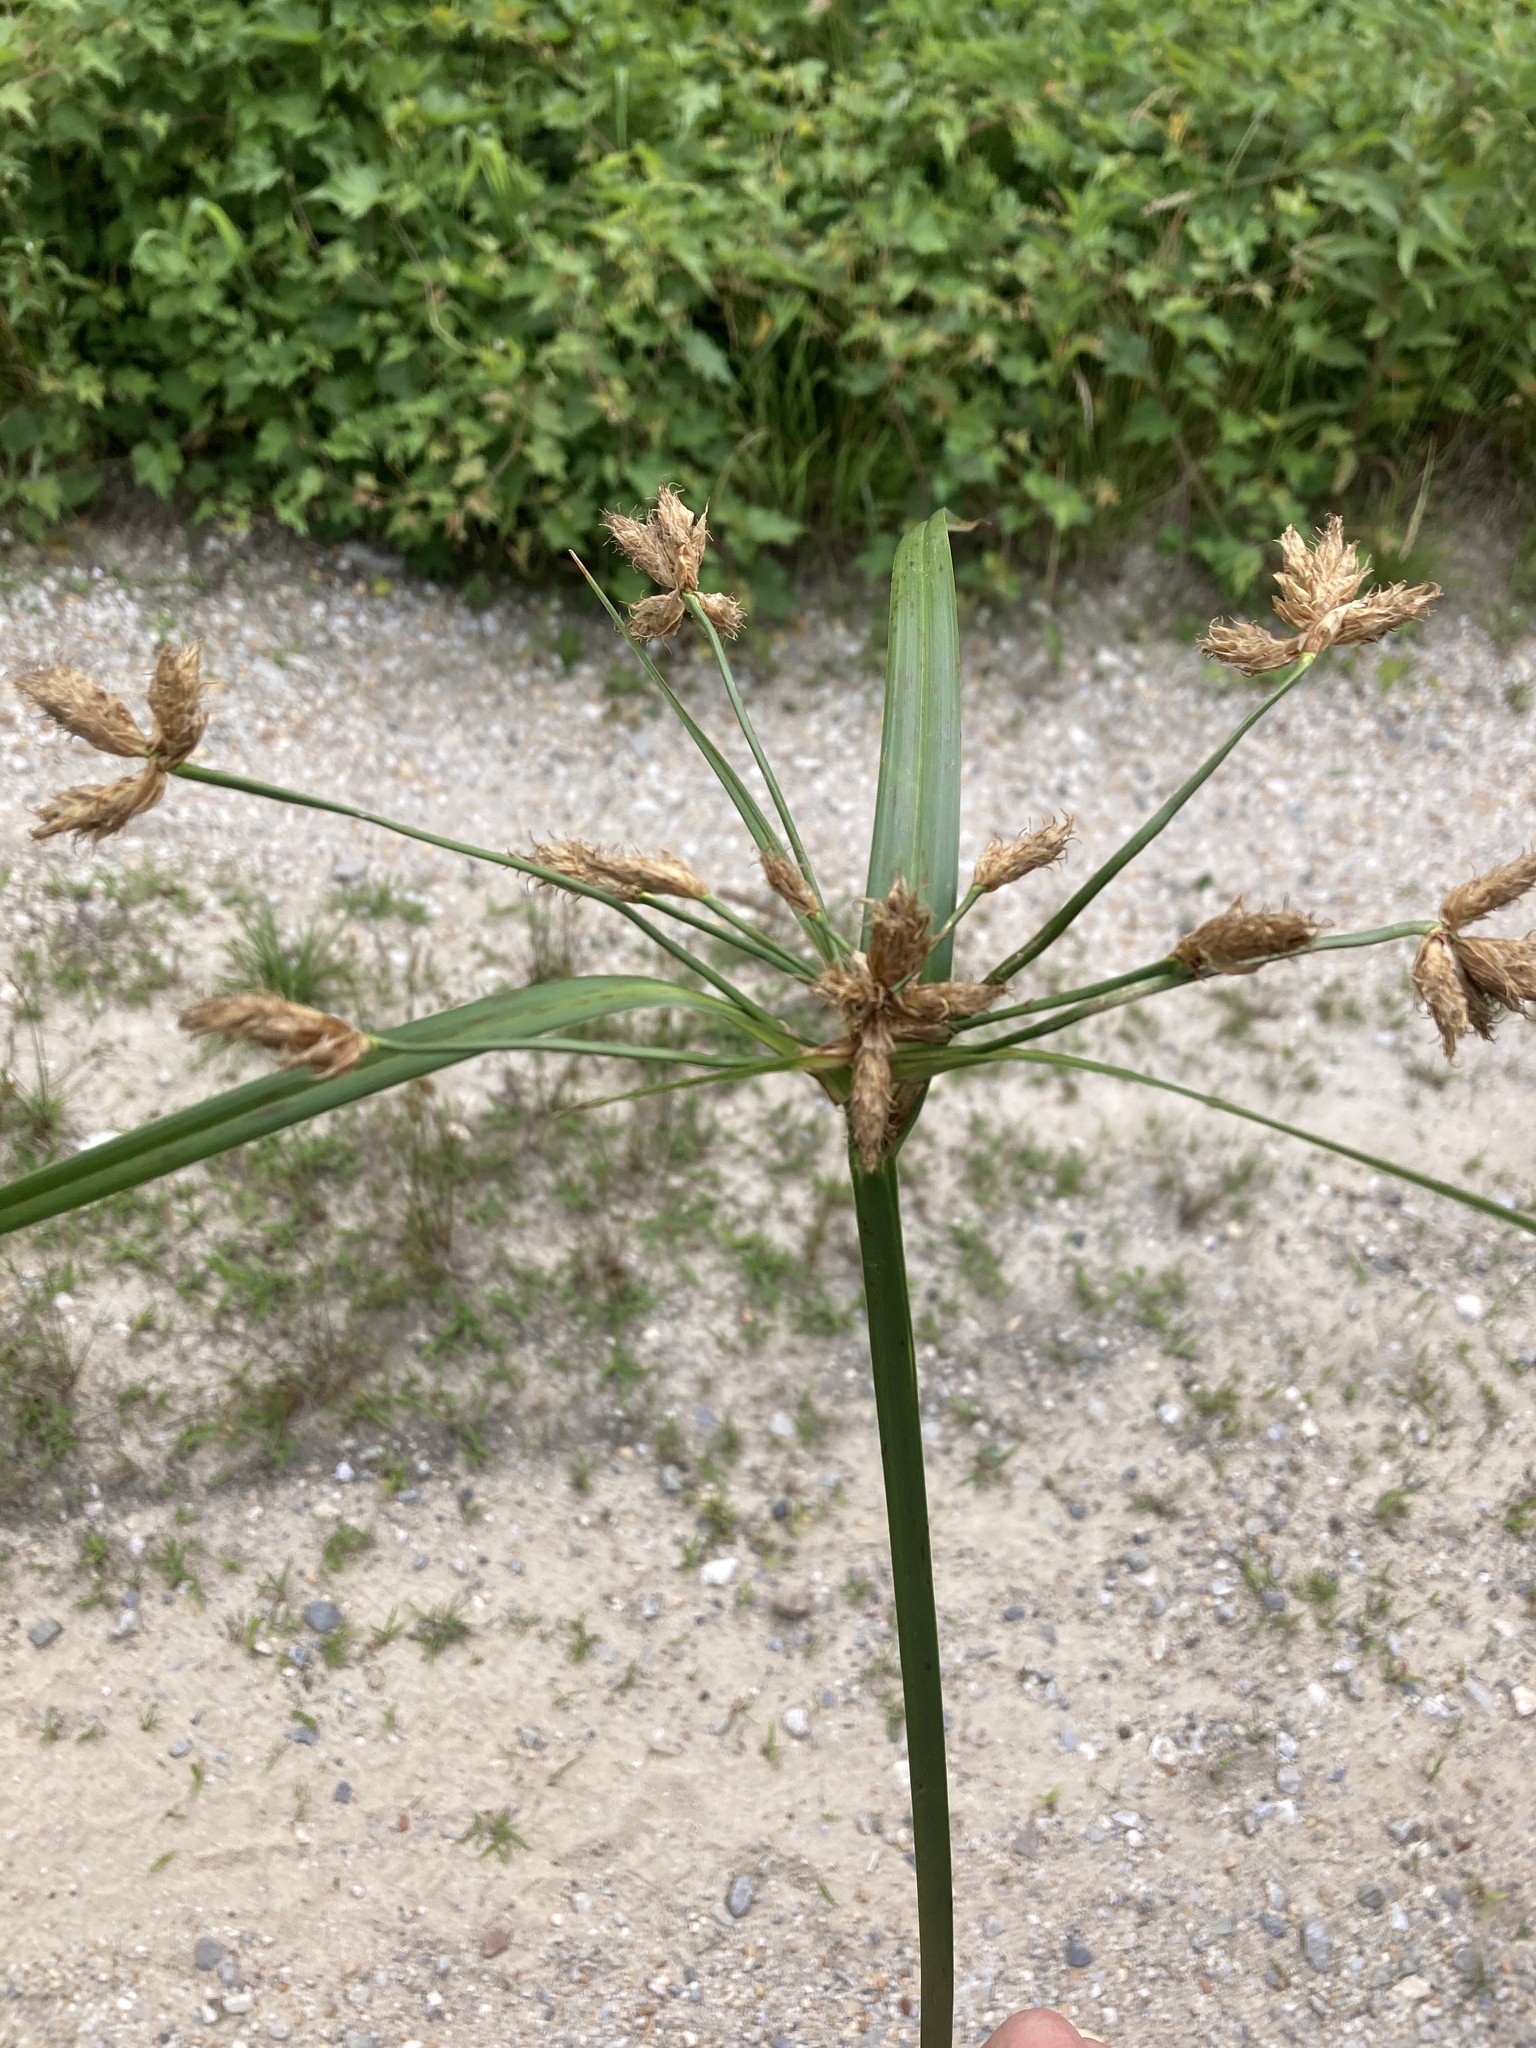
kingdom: Plantae
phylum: Tracheophyta
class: Liliopsida
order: Poales
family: Cyperaceae
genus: Bolboschoenus
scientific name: Bolboschoenus fluviatilis
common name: River bulrush
